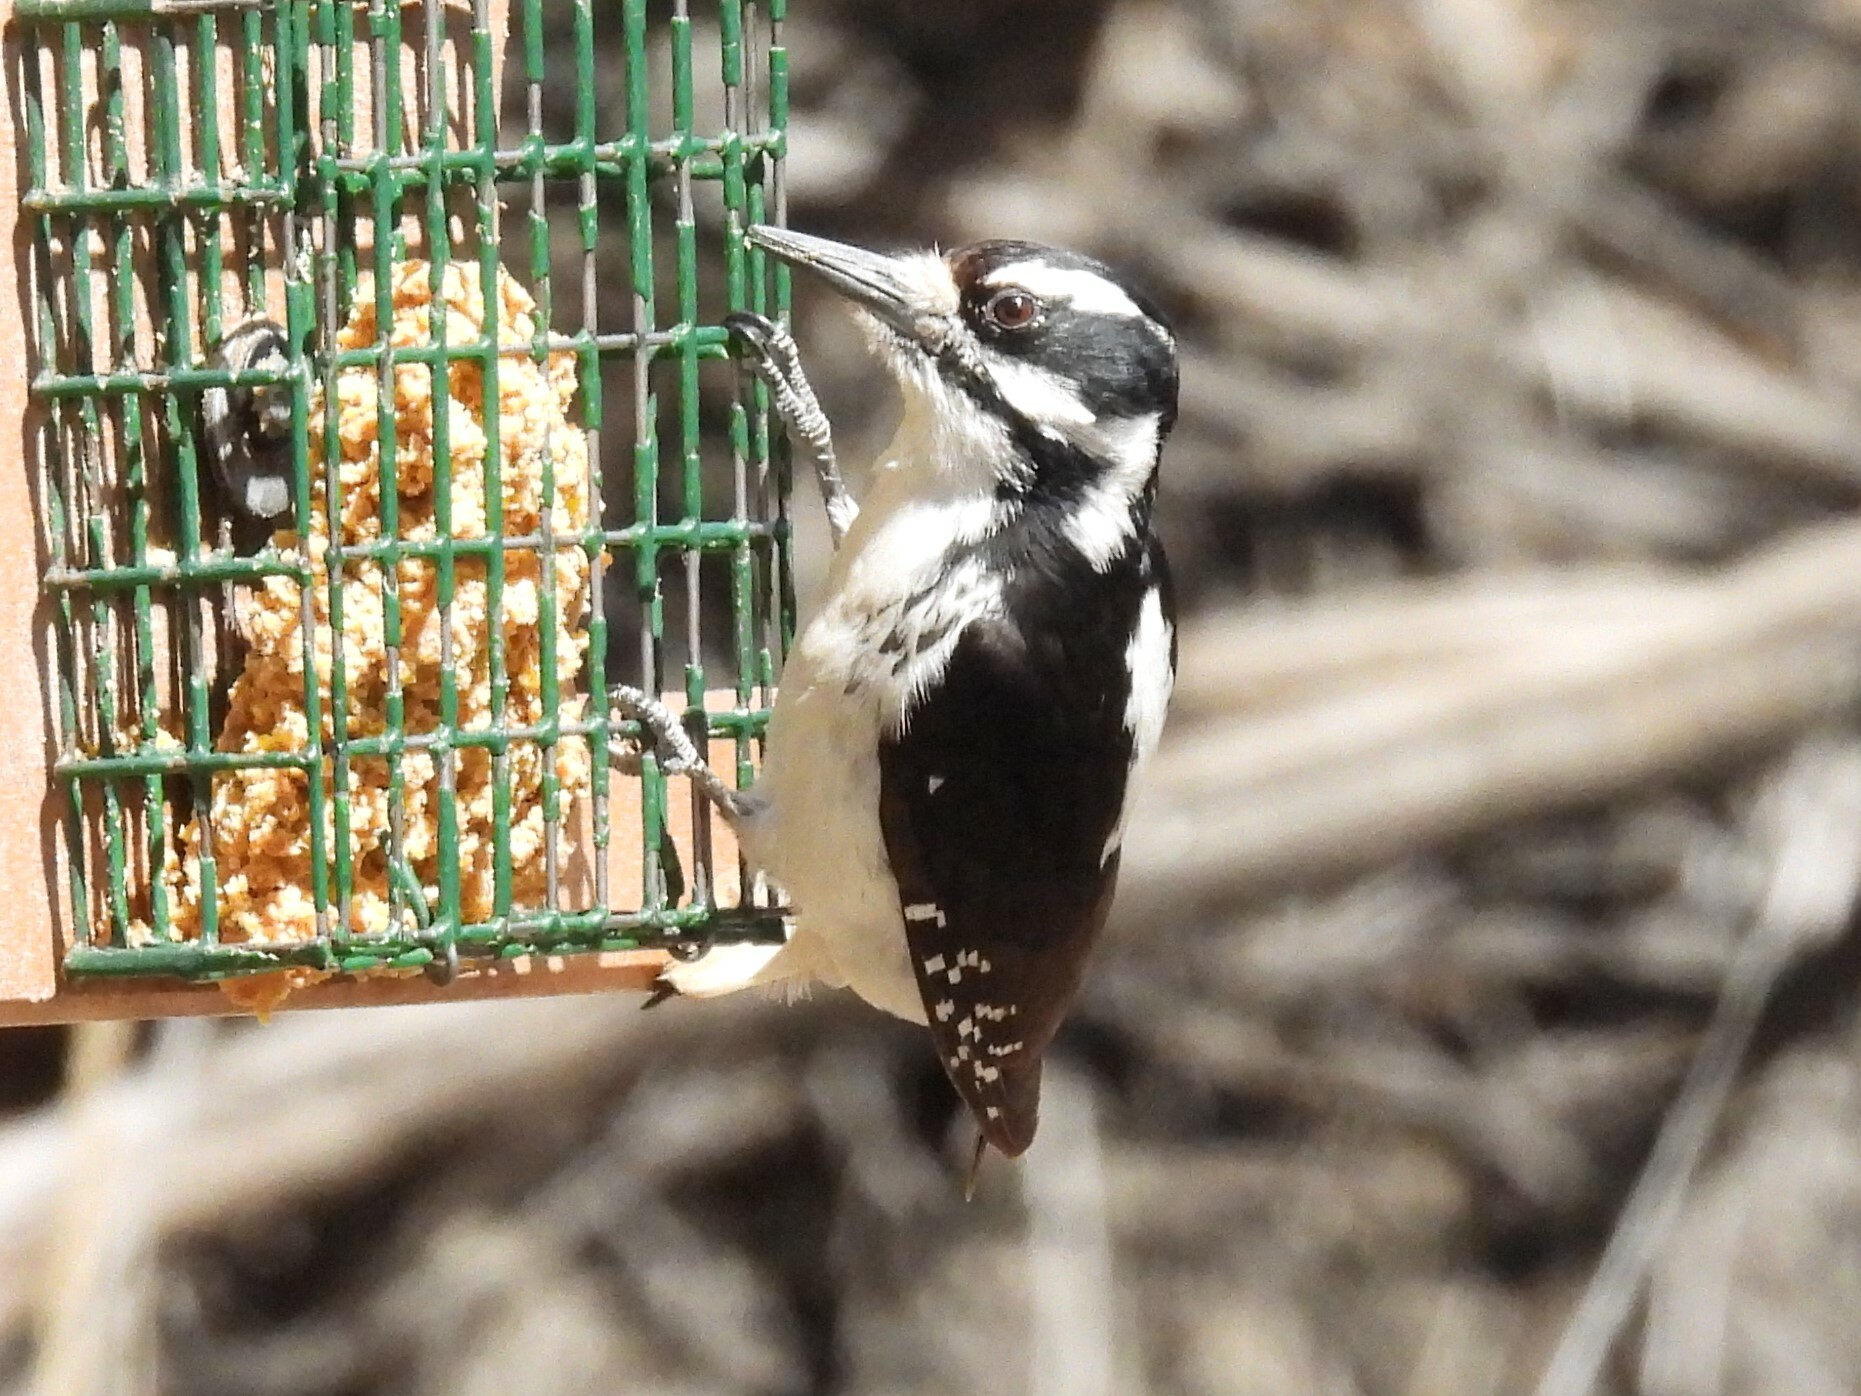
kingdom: Animalia
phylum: Chordata
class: Aves
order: Piciformes
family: Picidae
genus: Leuconotopicus
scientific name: Leuconotopicus villosus
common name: Hairy woodpecker
